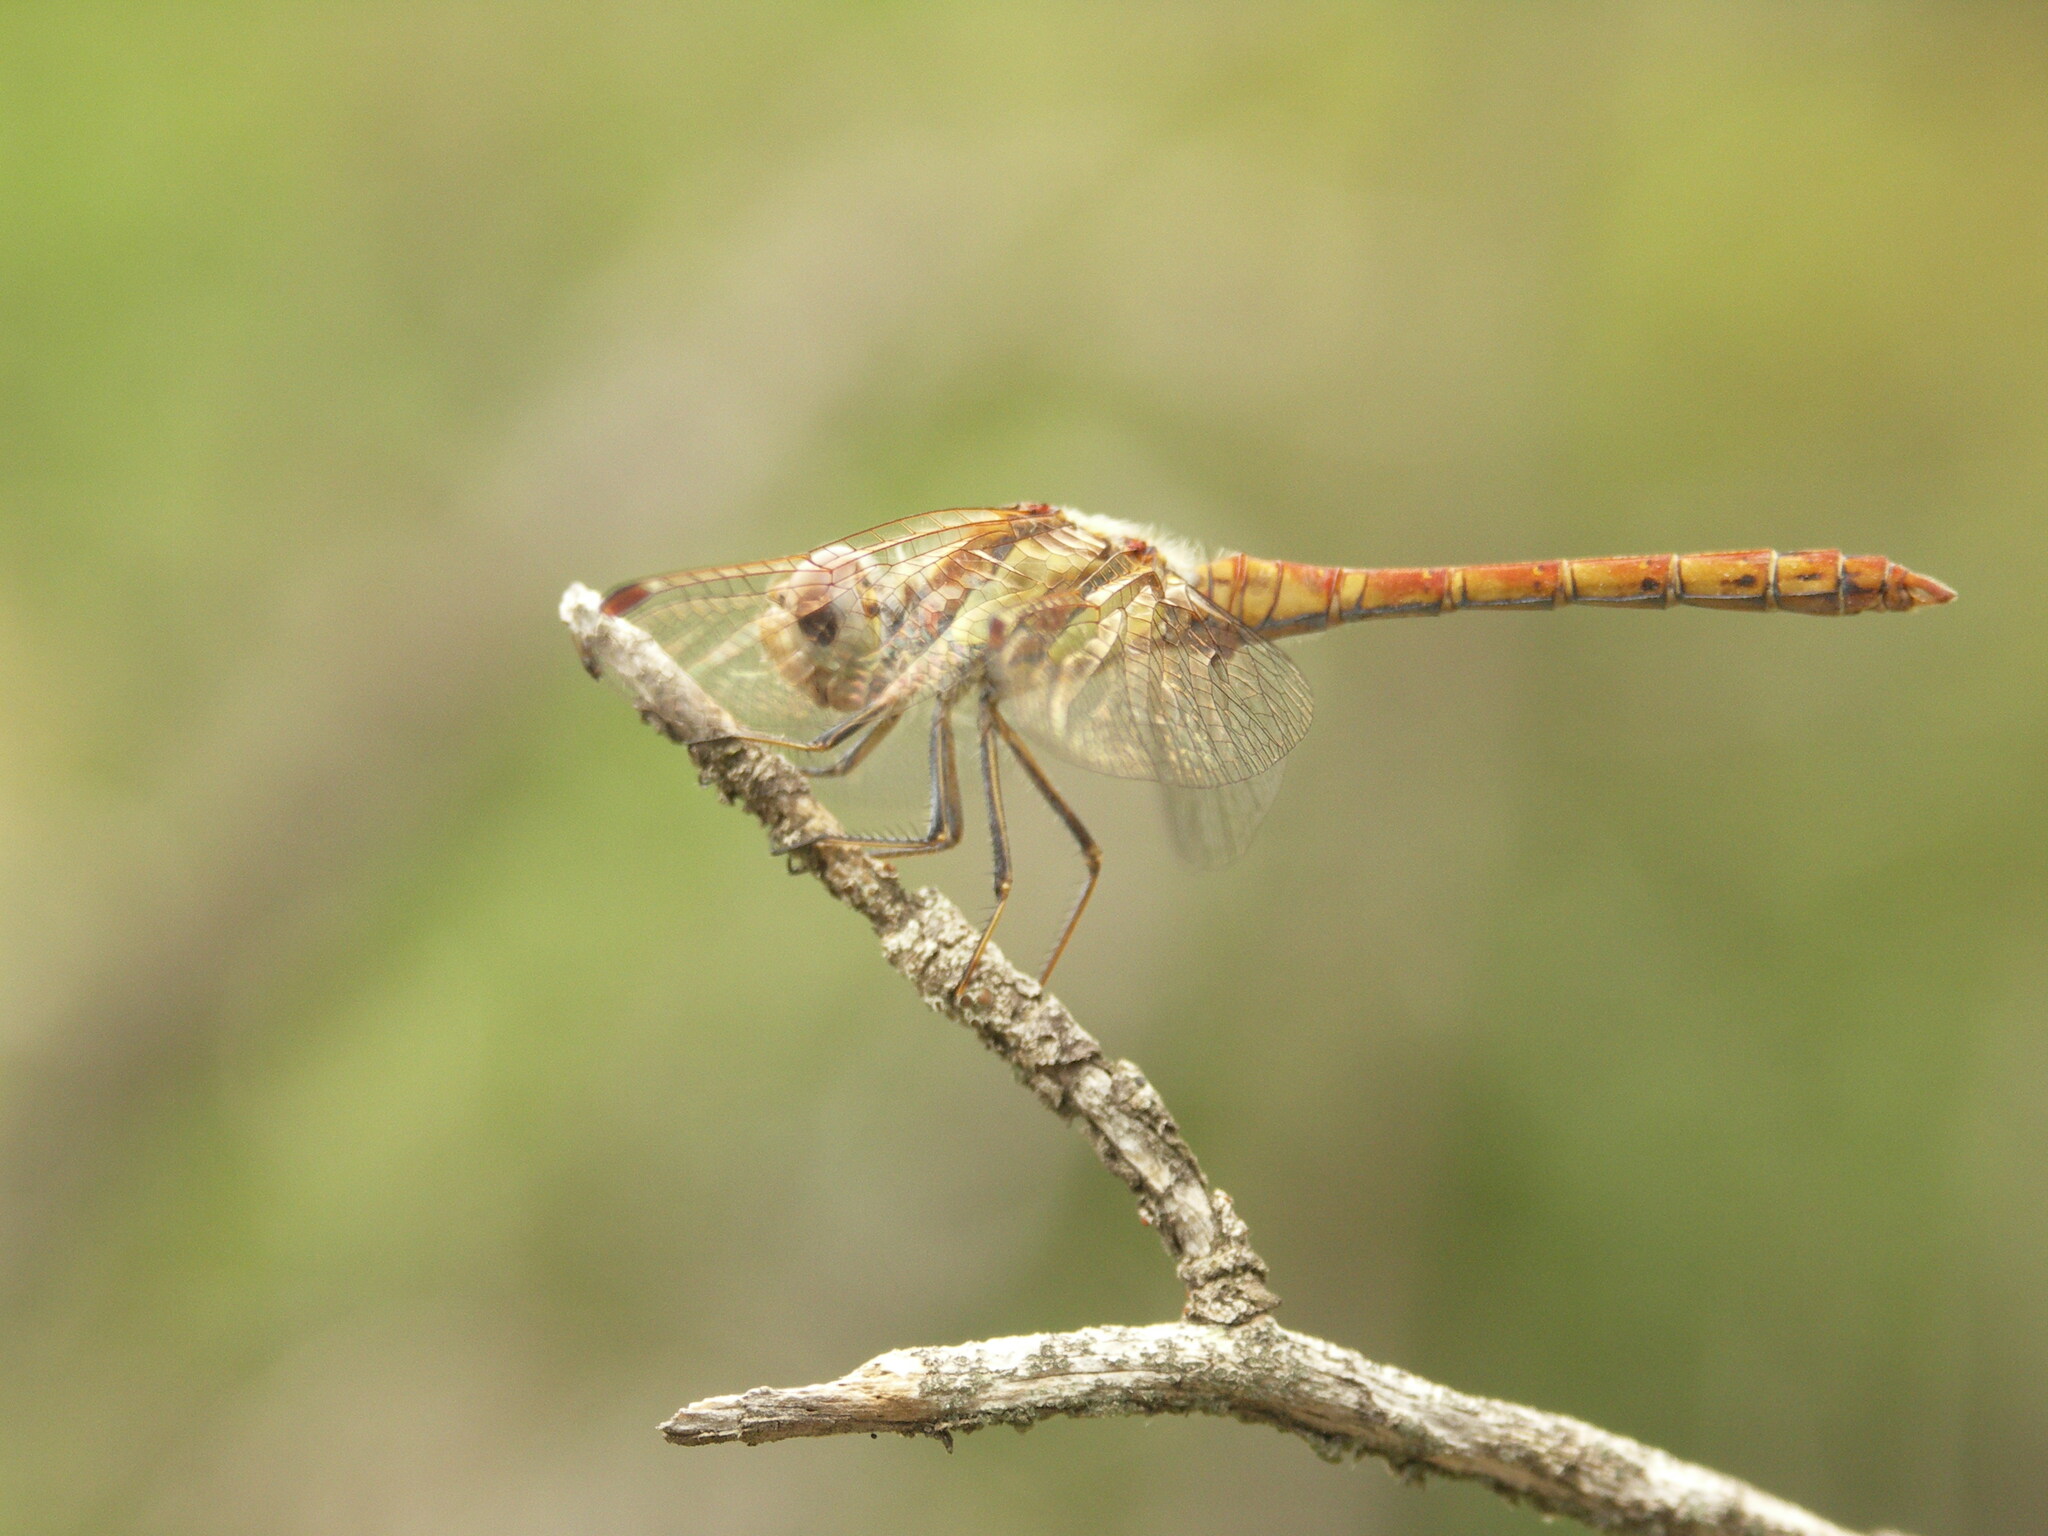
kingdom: Animalia
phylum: Arthropoda
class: Insecta
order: Odonata
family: Libellulidae
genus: Sympetrum
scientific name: Sympetrum striolatum
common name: Common darter
